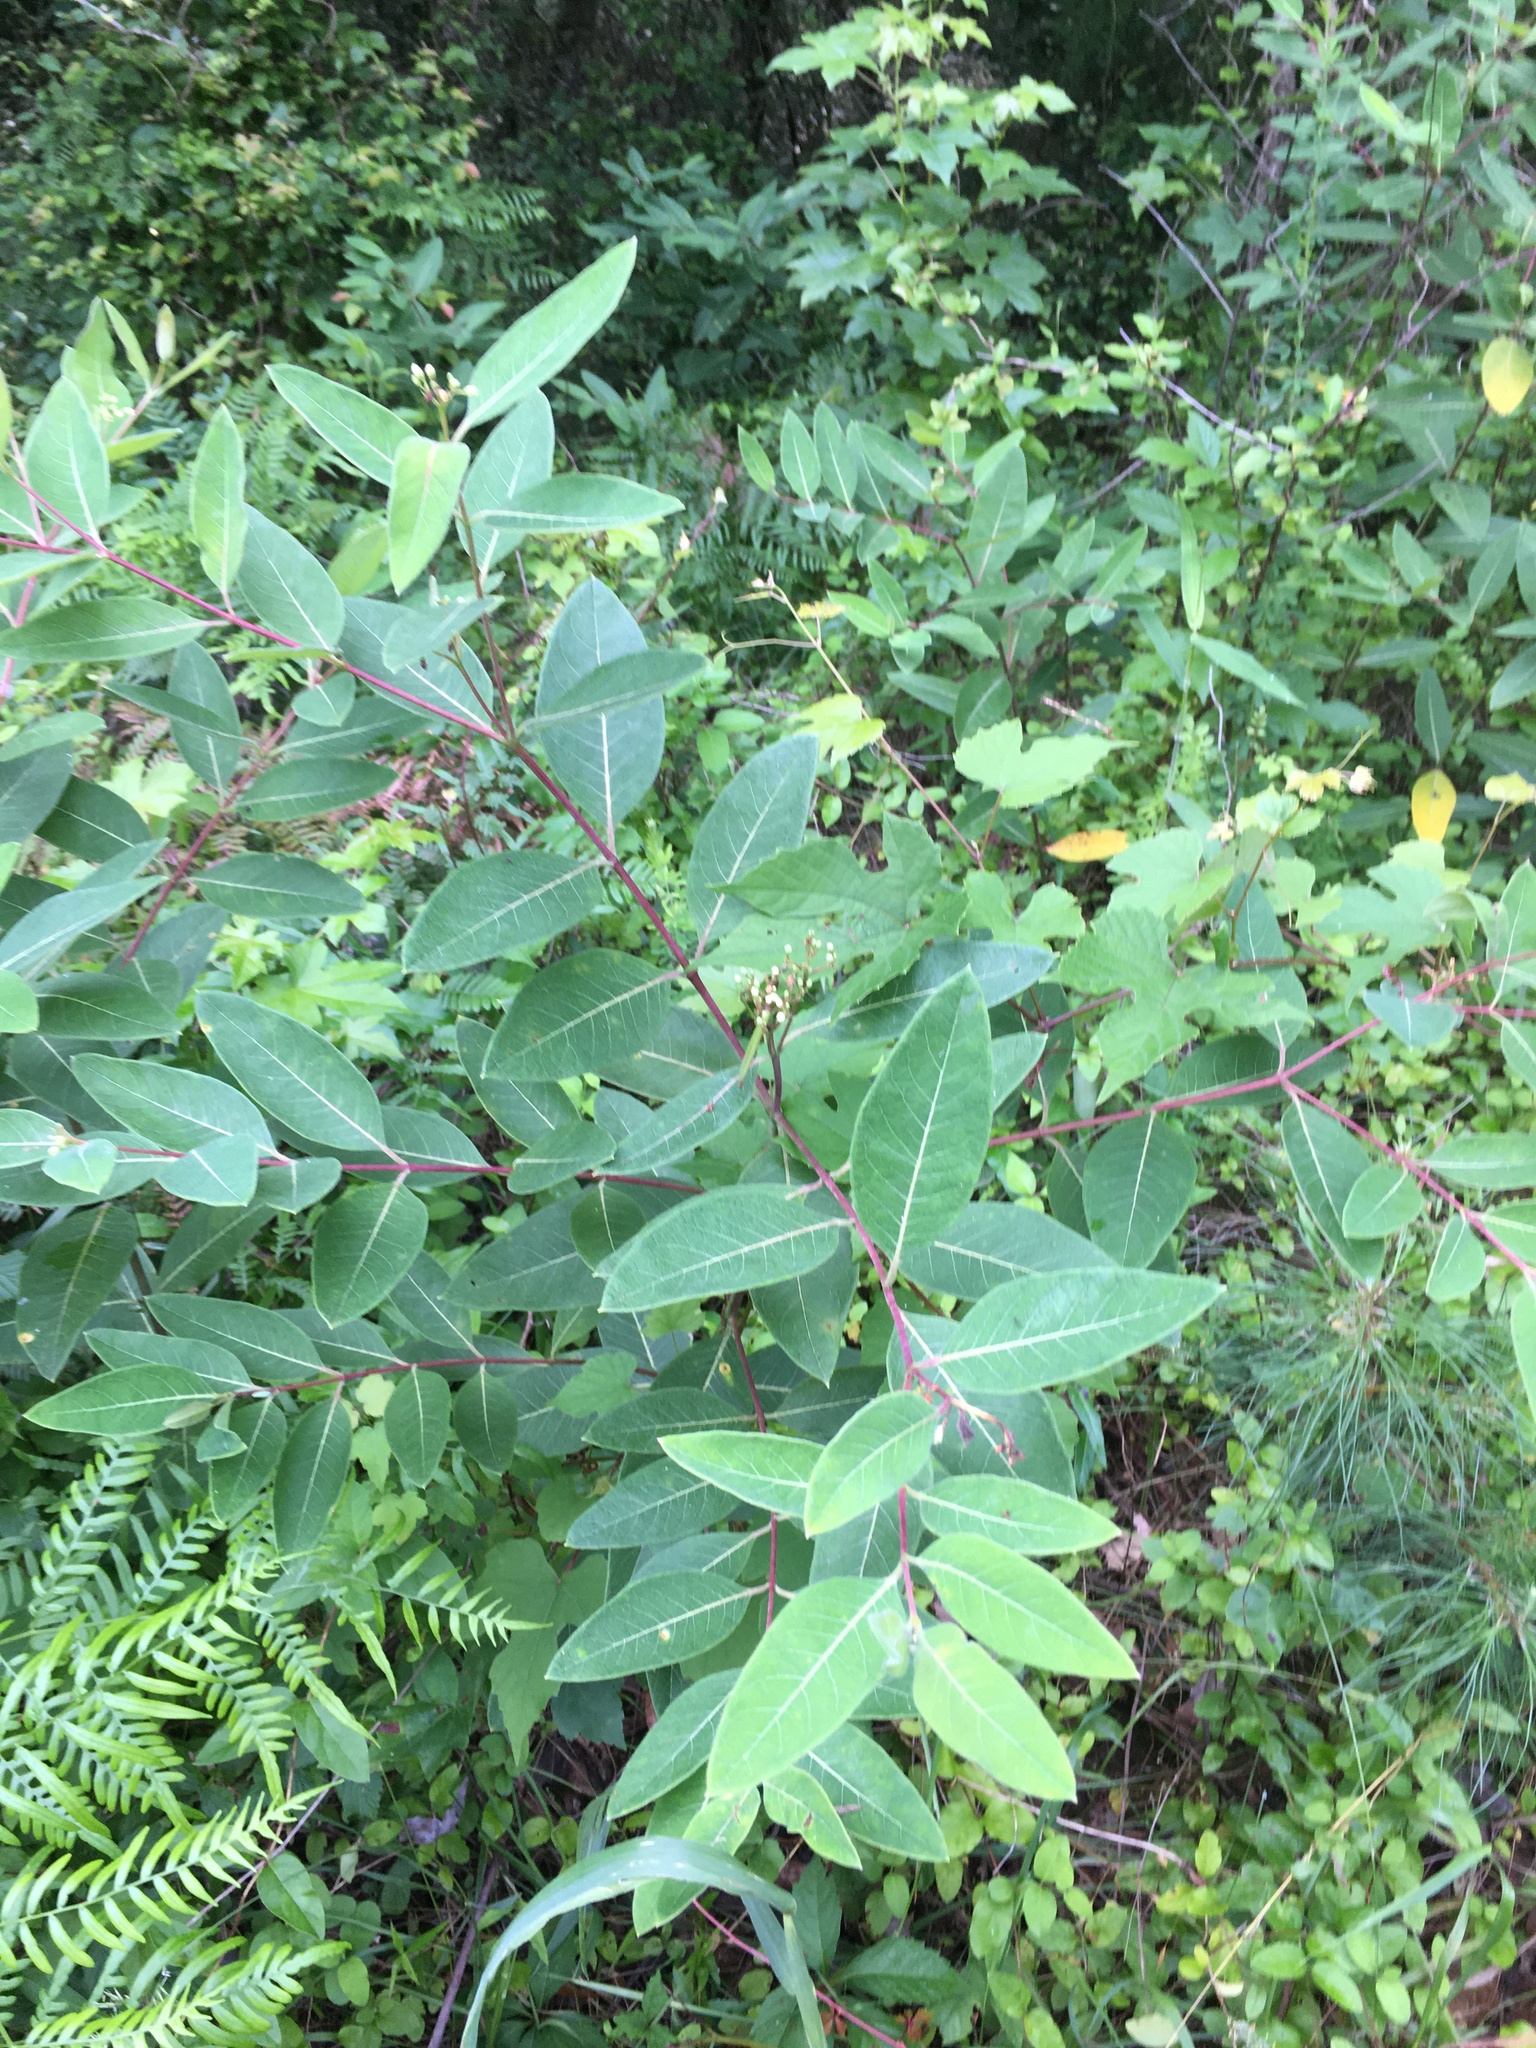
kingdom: Plantae
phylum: Tracheophyta
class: Magnoliopsida
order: Gentianales
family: Apocynaceae
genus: Apocynum
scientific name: Apocynum cannabinum
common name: Hemp dogbane
